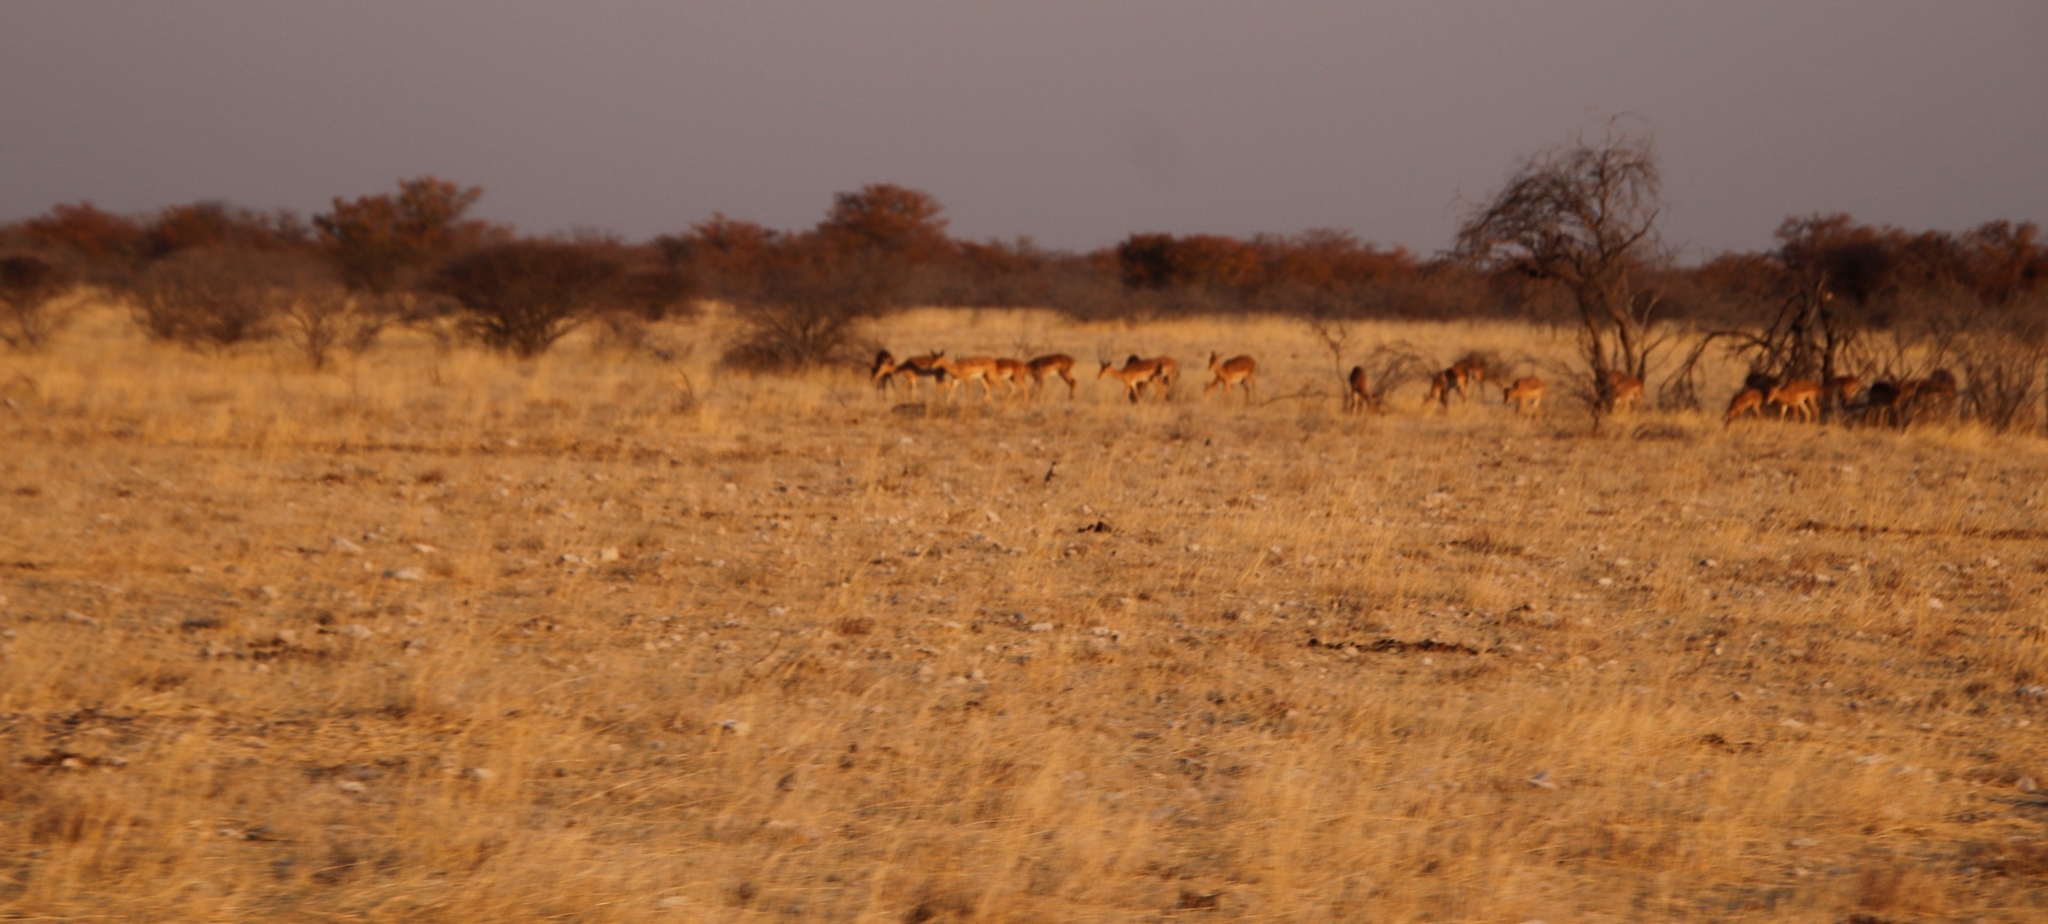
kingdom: Animalia
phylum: Chordata
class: Mammalia
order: Artiodactyla
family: Bovidae
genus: Aepyceros
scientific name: Aepyceros melampus
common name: Impala
